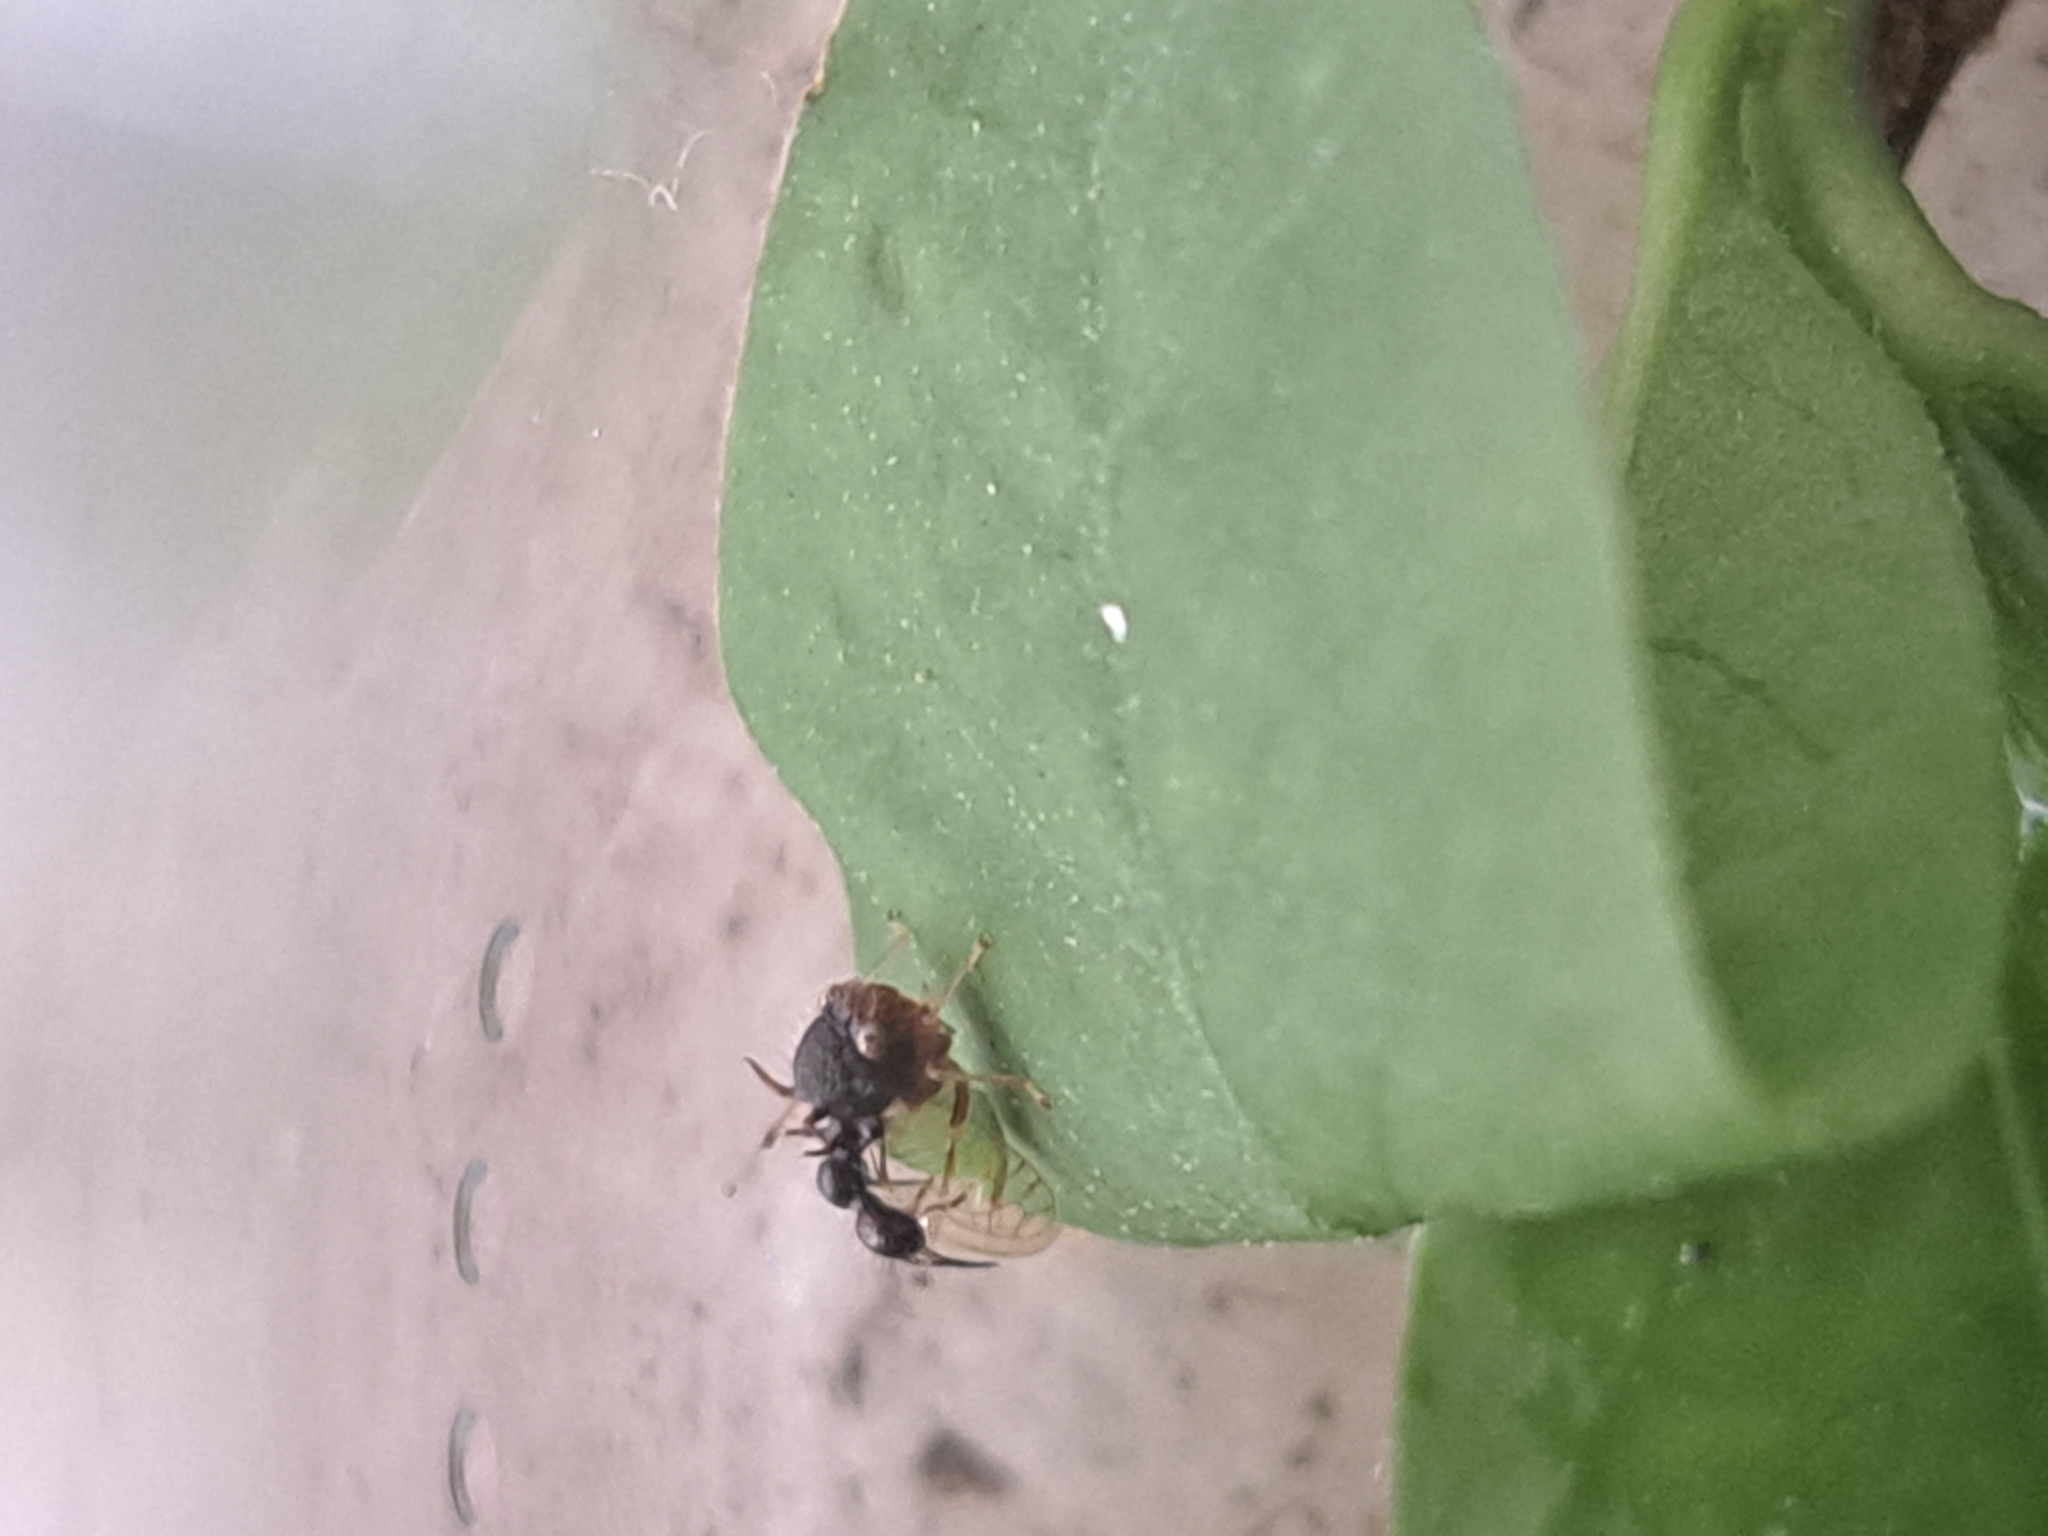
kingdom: Animalia
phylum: Arthropoda
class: Insecta
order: Hemiptera
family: Membracidae
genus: Cyphonia
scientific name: Cyphonia clavata
